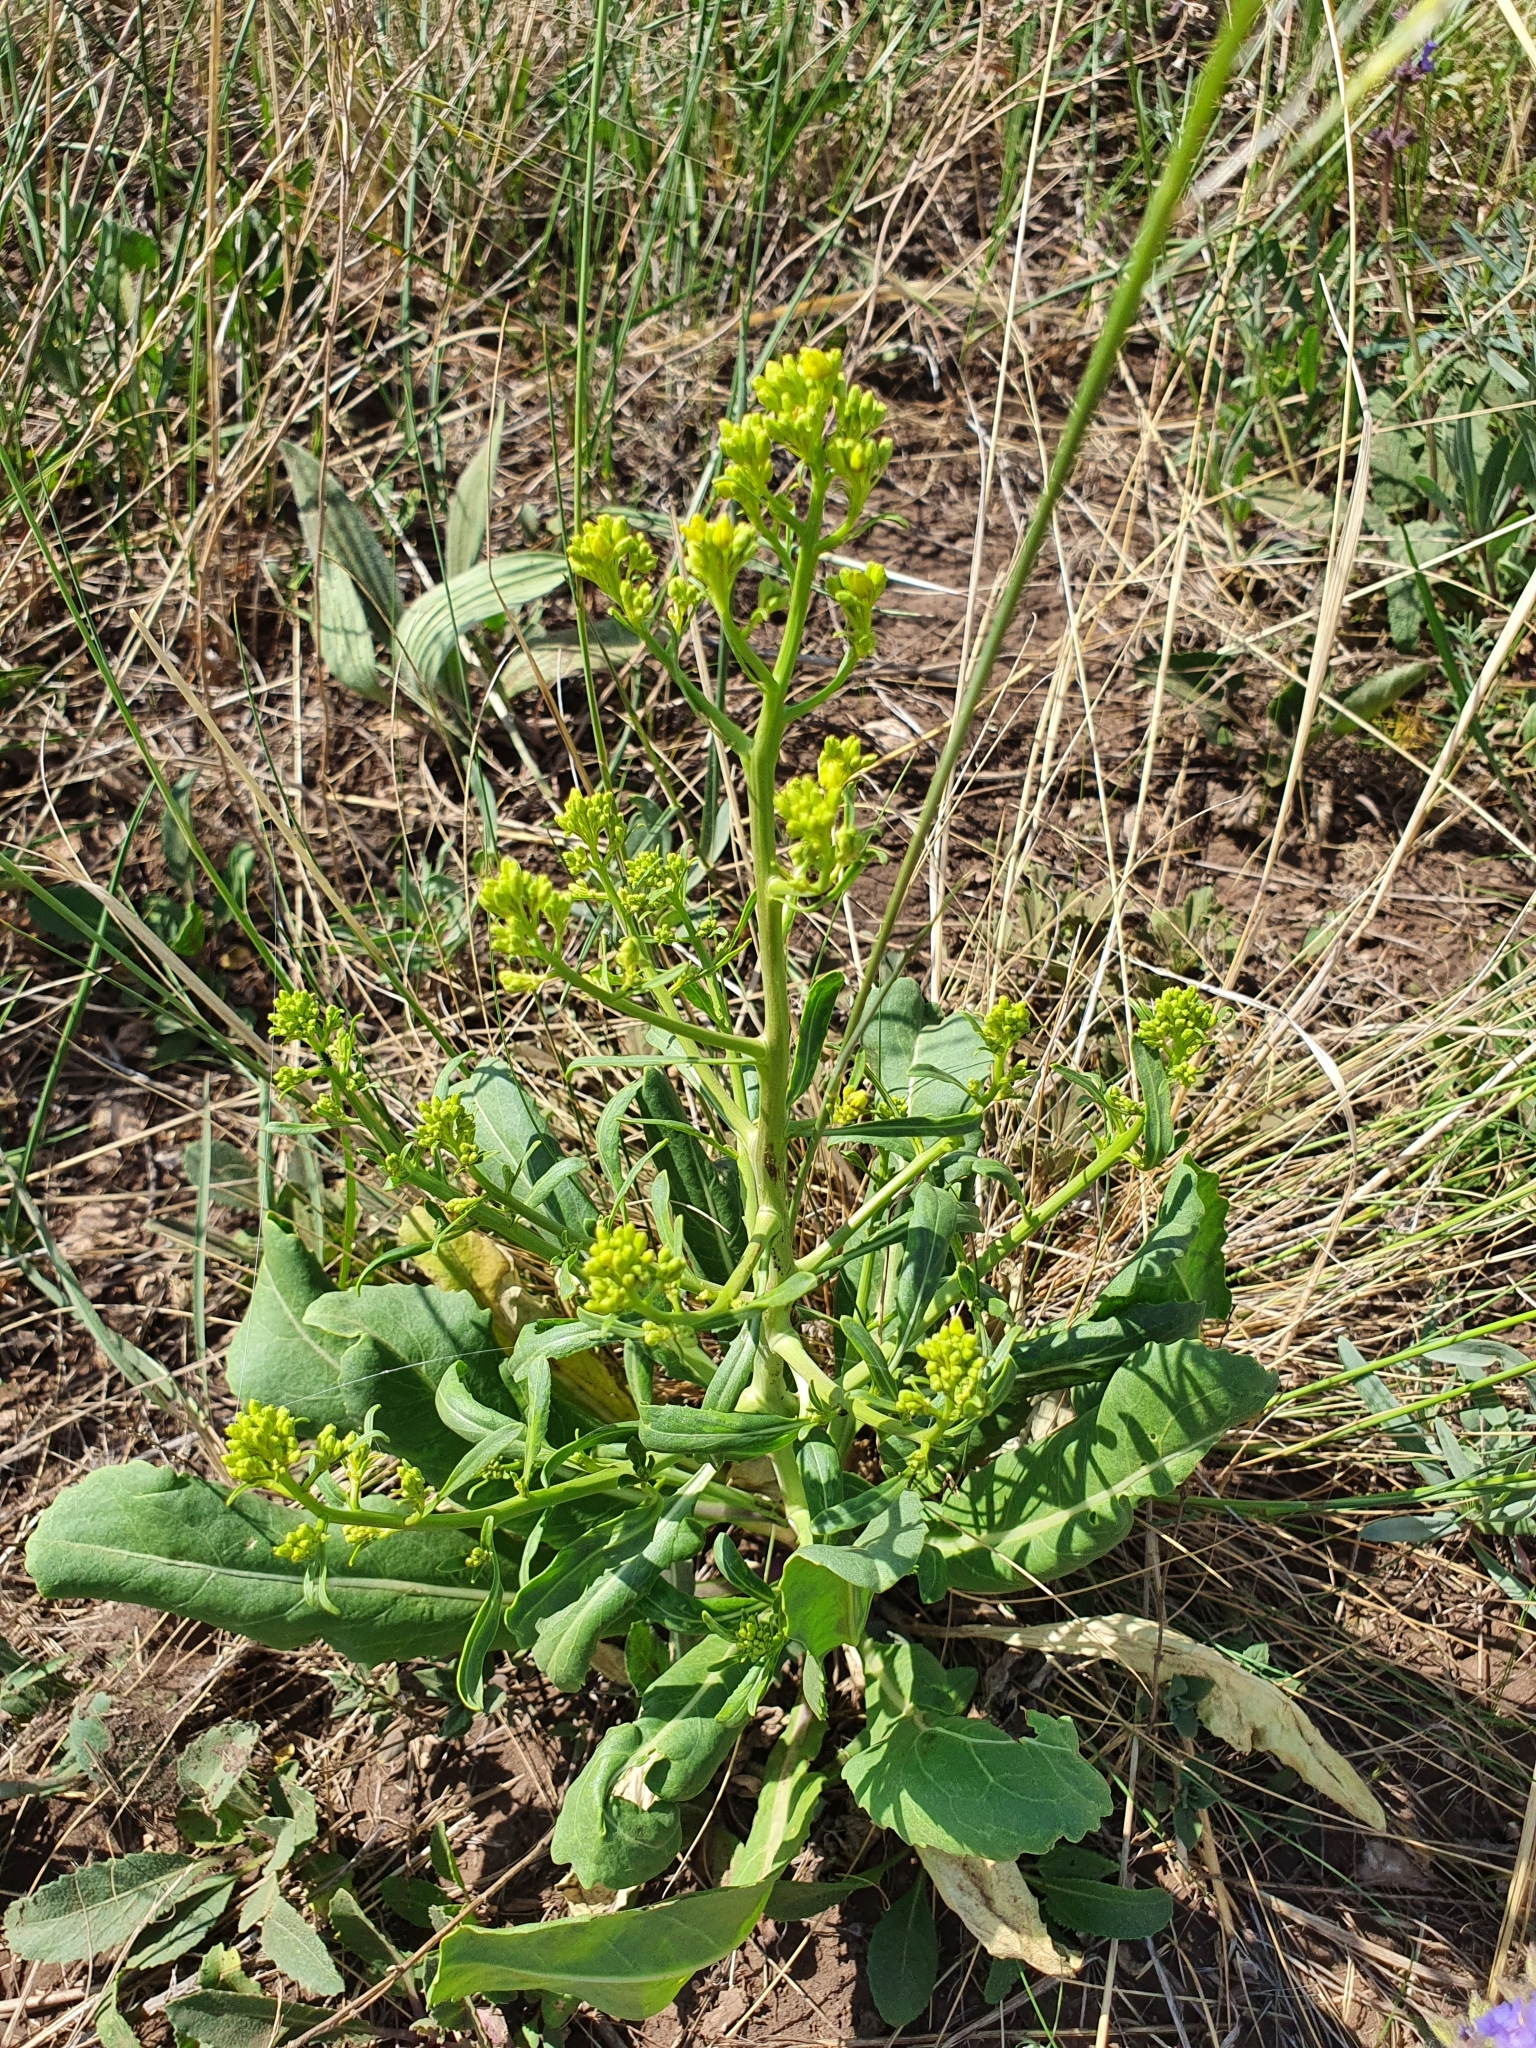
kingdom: Plantae
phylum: Tracheophyta
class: Magnoliopsida
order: Brassicales
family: Brassicaceae
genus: Brassica
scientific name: Brassica elongata
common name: Long-stalked rape
